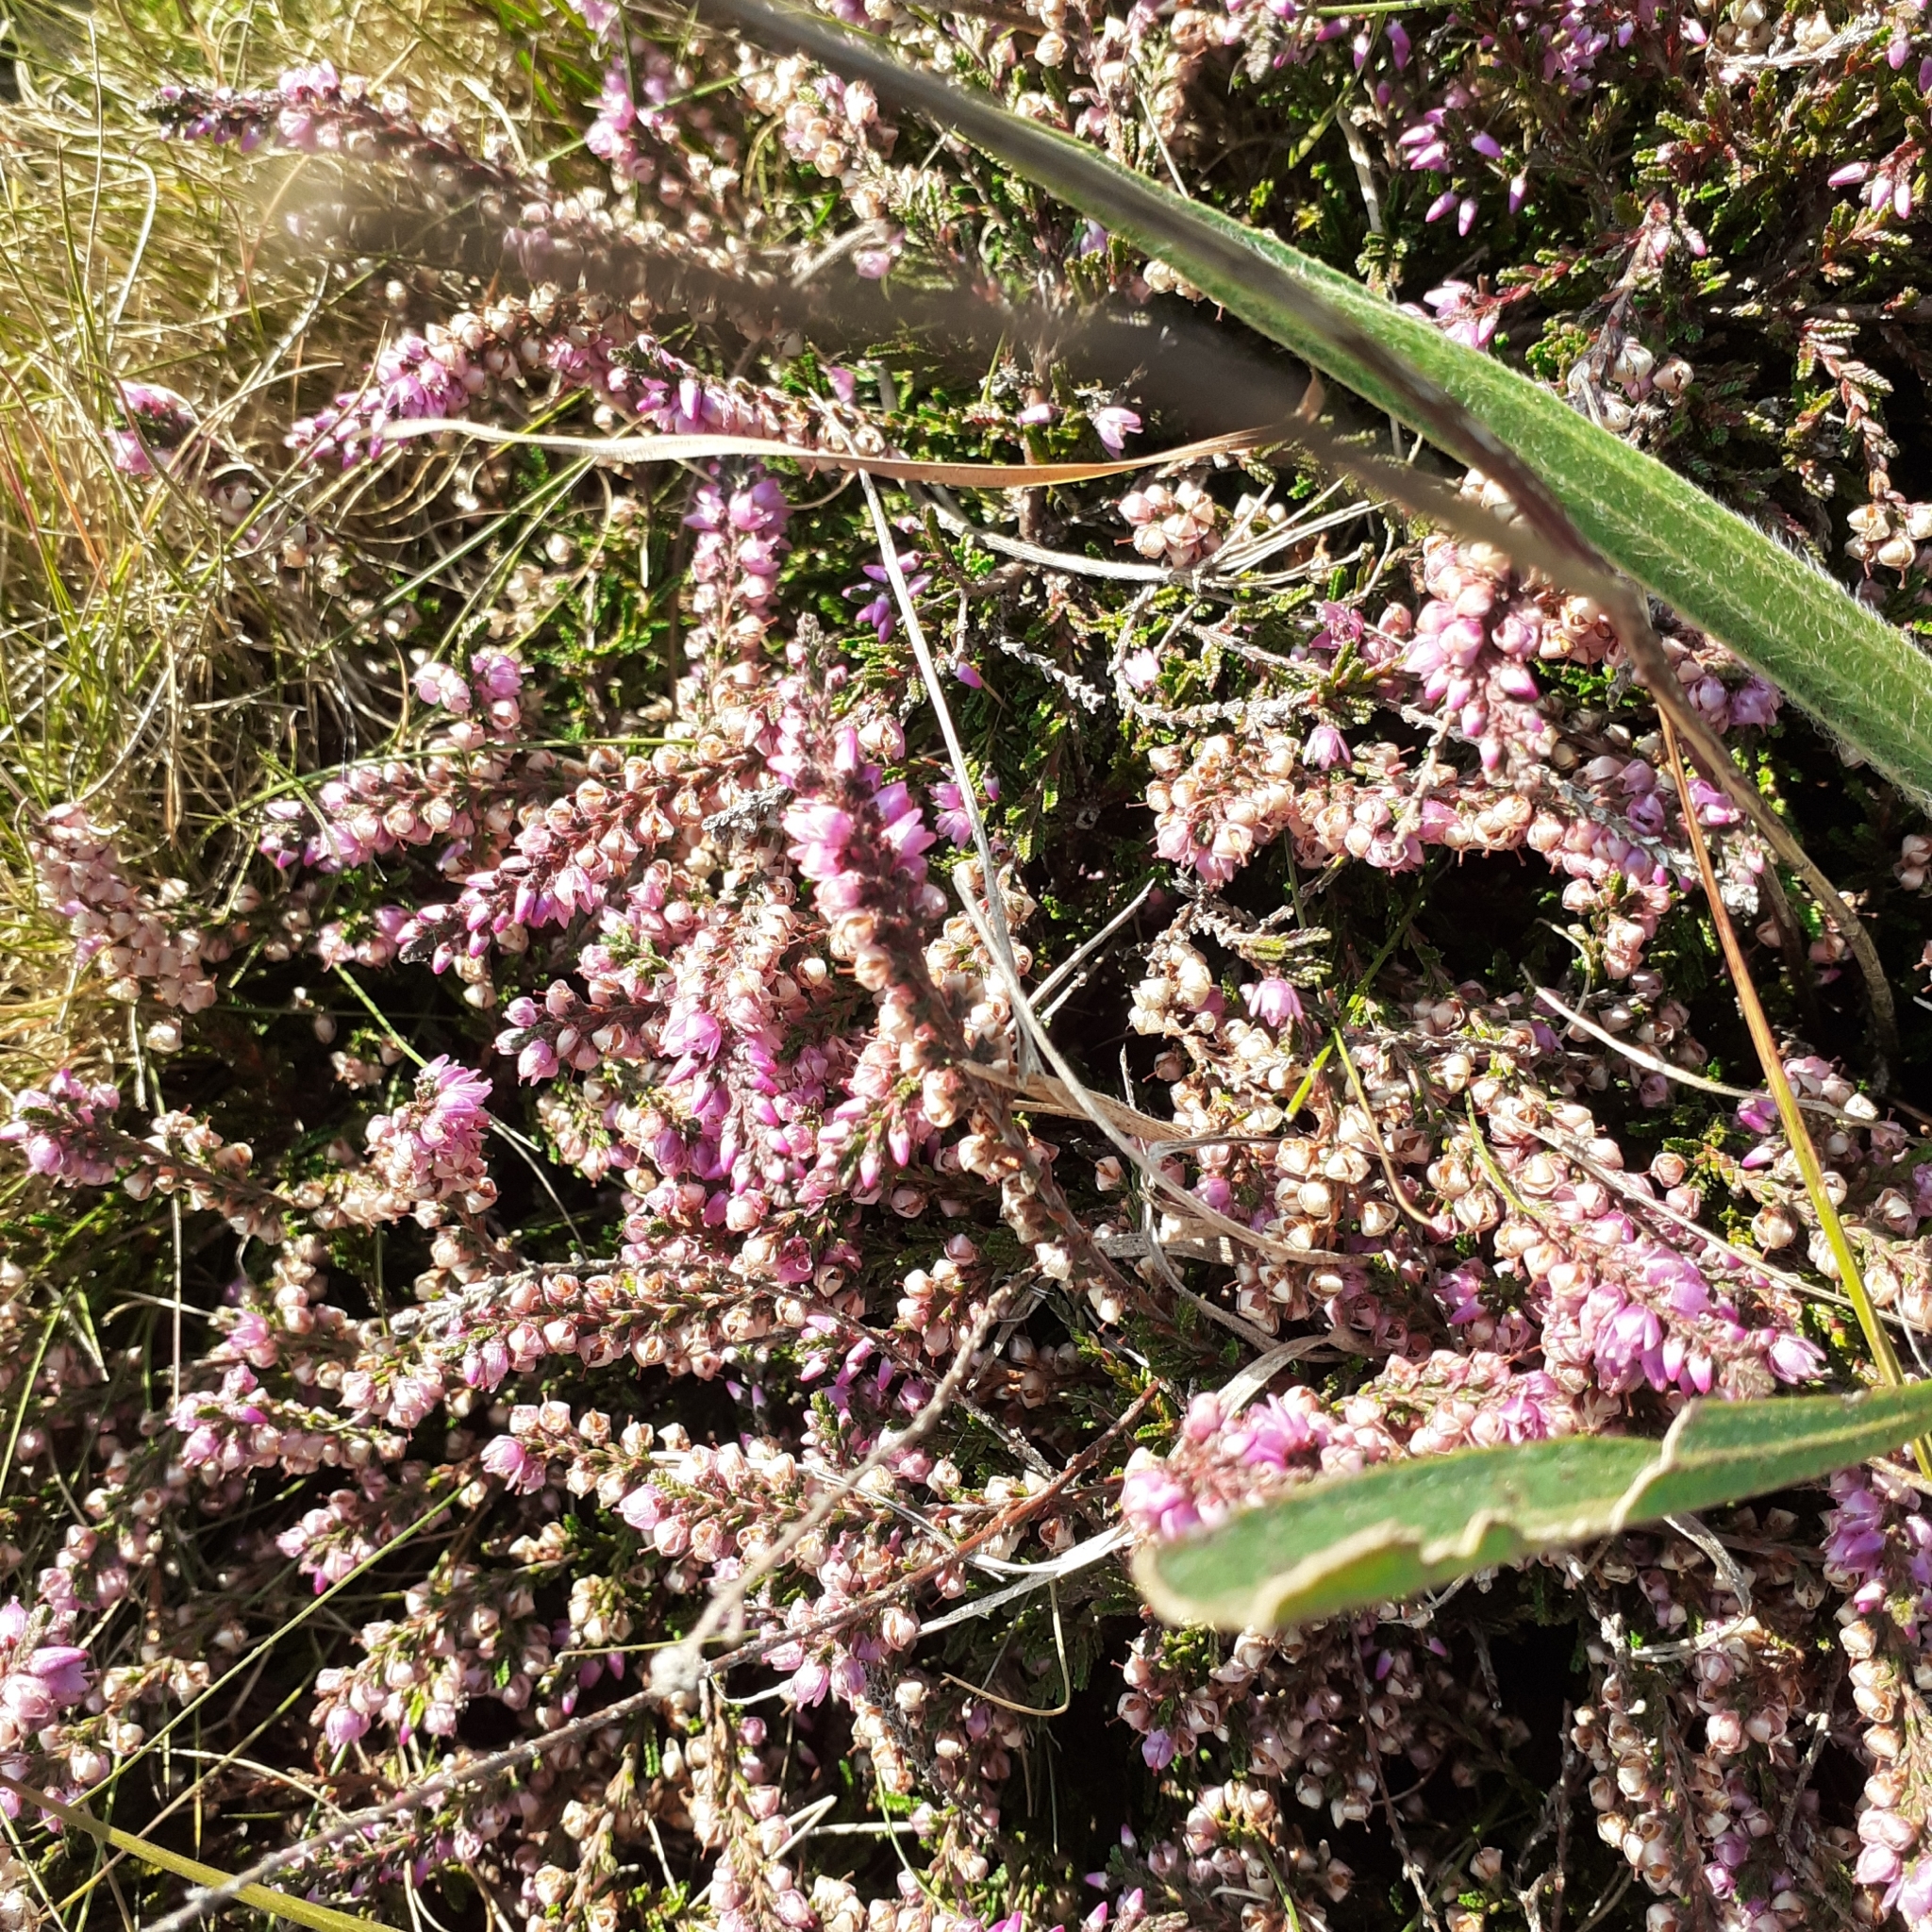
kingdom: Plantae
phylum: Tracheophyta
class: Magnoliopsida
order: Ericales
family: Ericaceae
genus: Calluna
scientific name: Calluna vulgaris
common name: Heather
